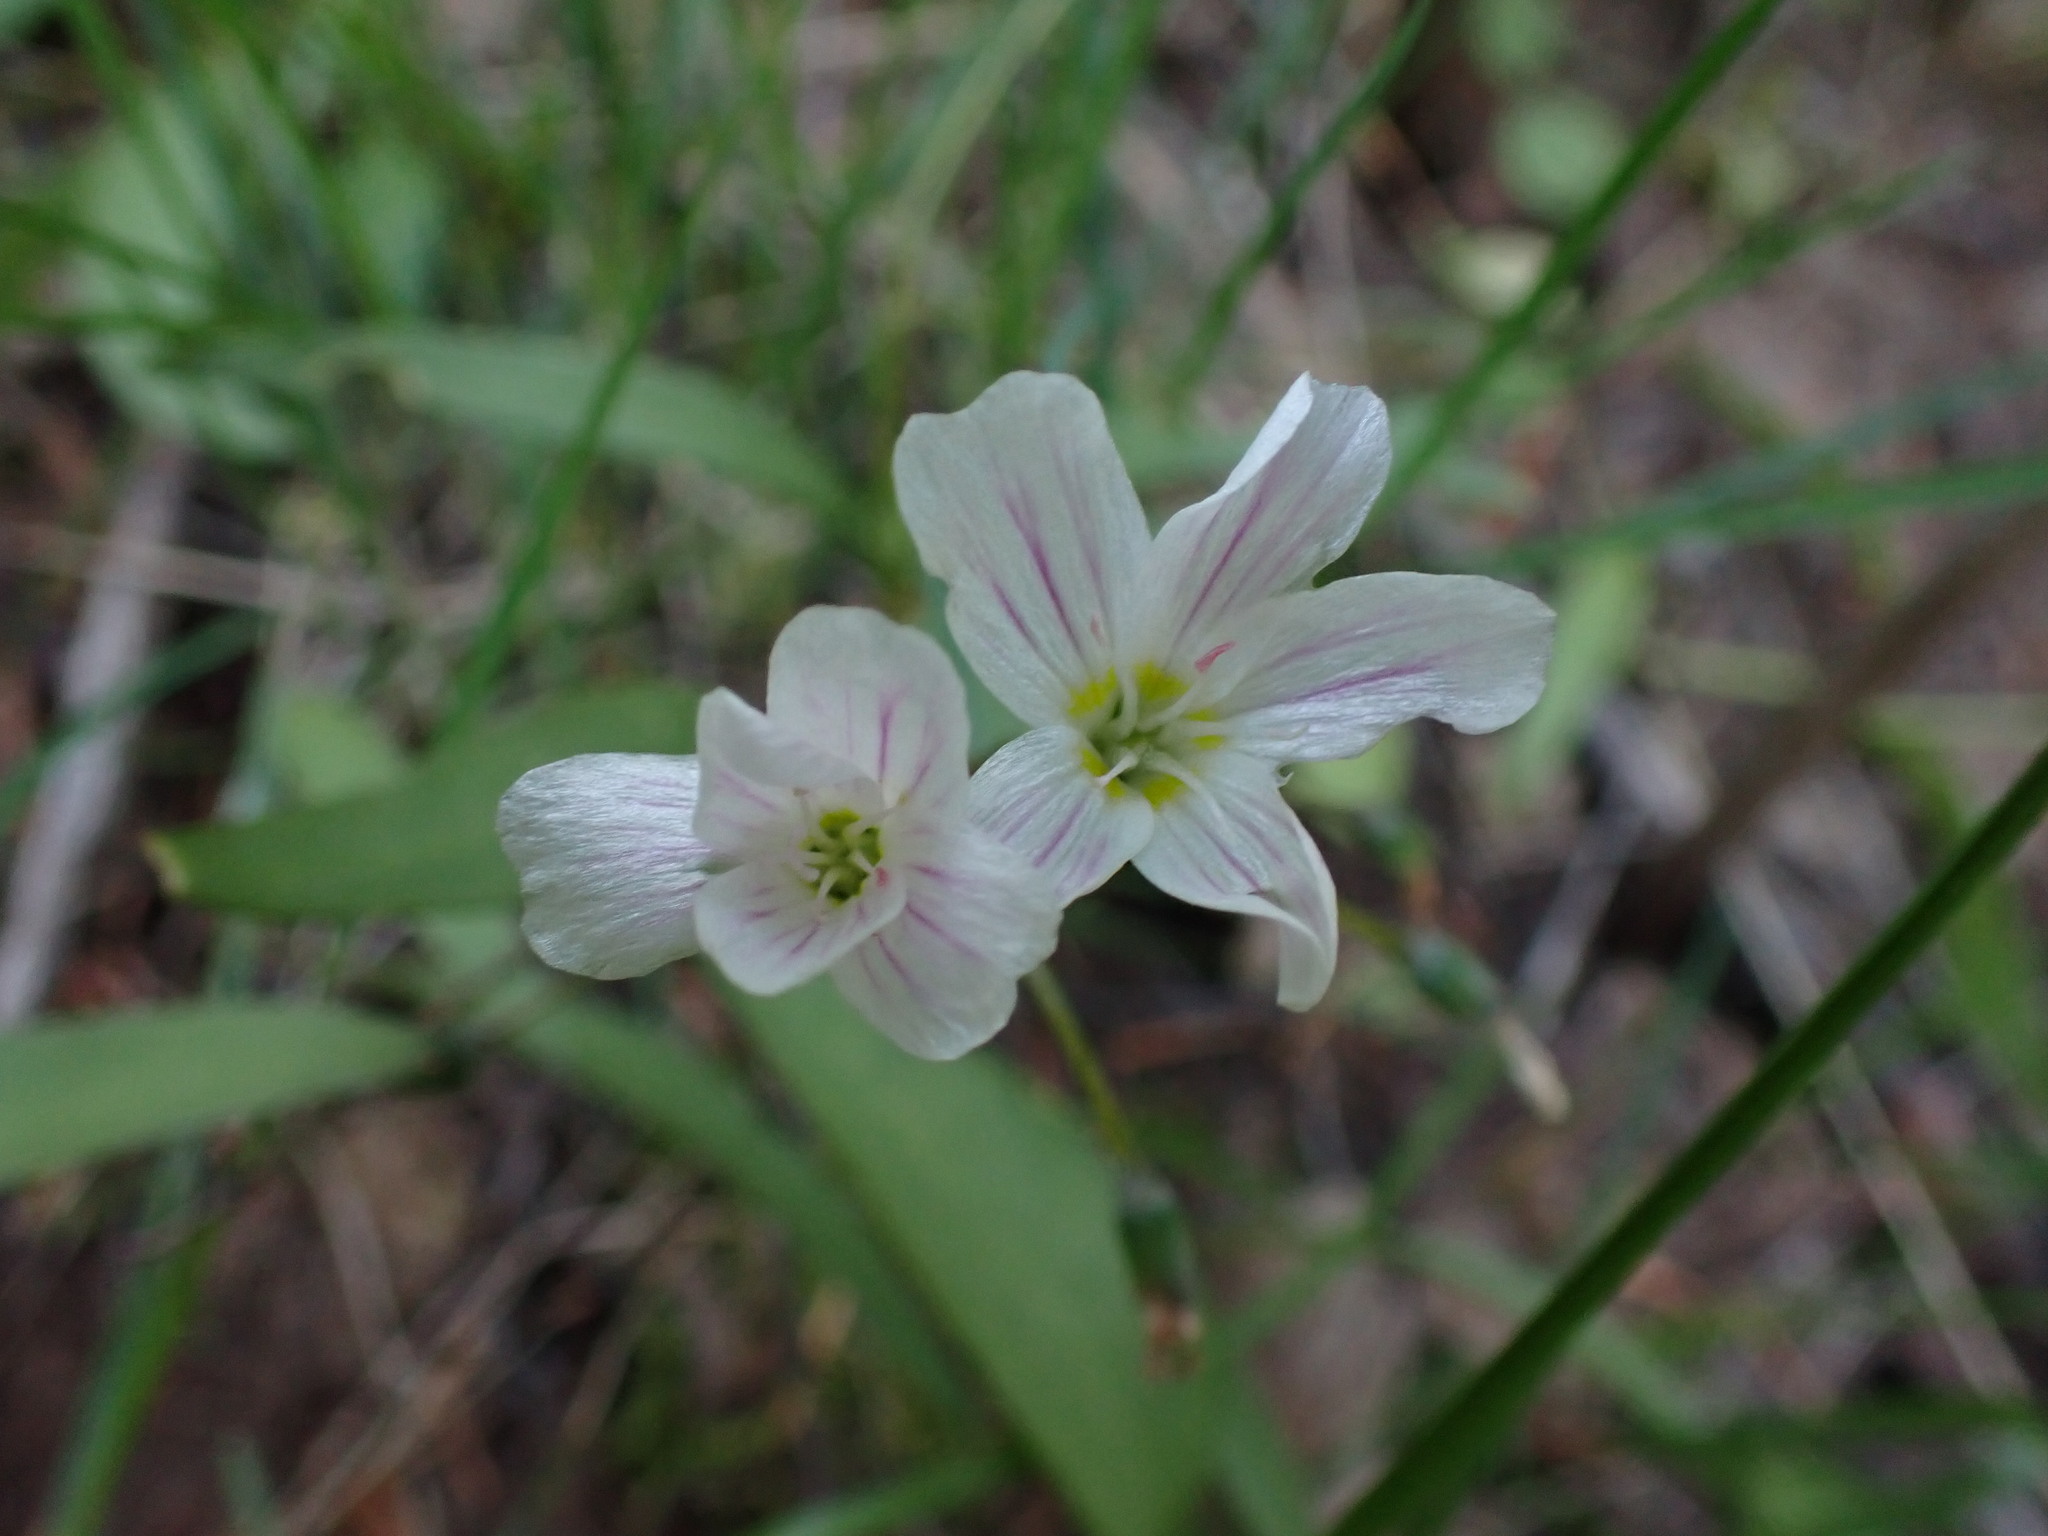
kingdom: Plantae
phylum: Tracheophyta
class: Magnoliopsida
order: Caryophyllales
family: Montiaceae
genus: Claytonia
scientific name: Claytonia lanceolata
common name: Western spring-beauty
